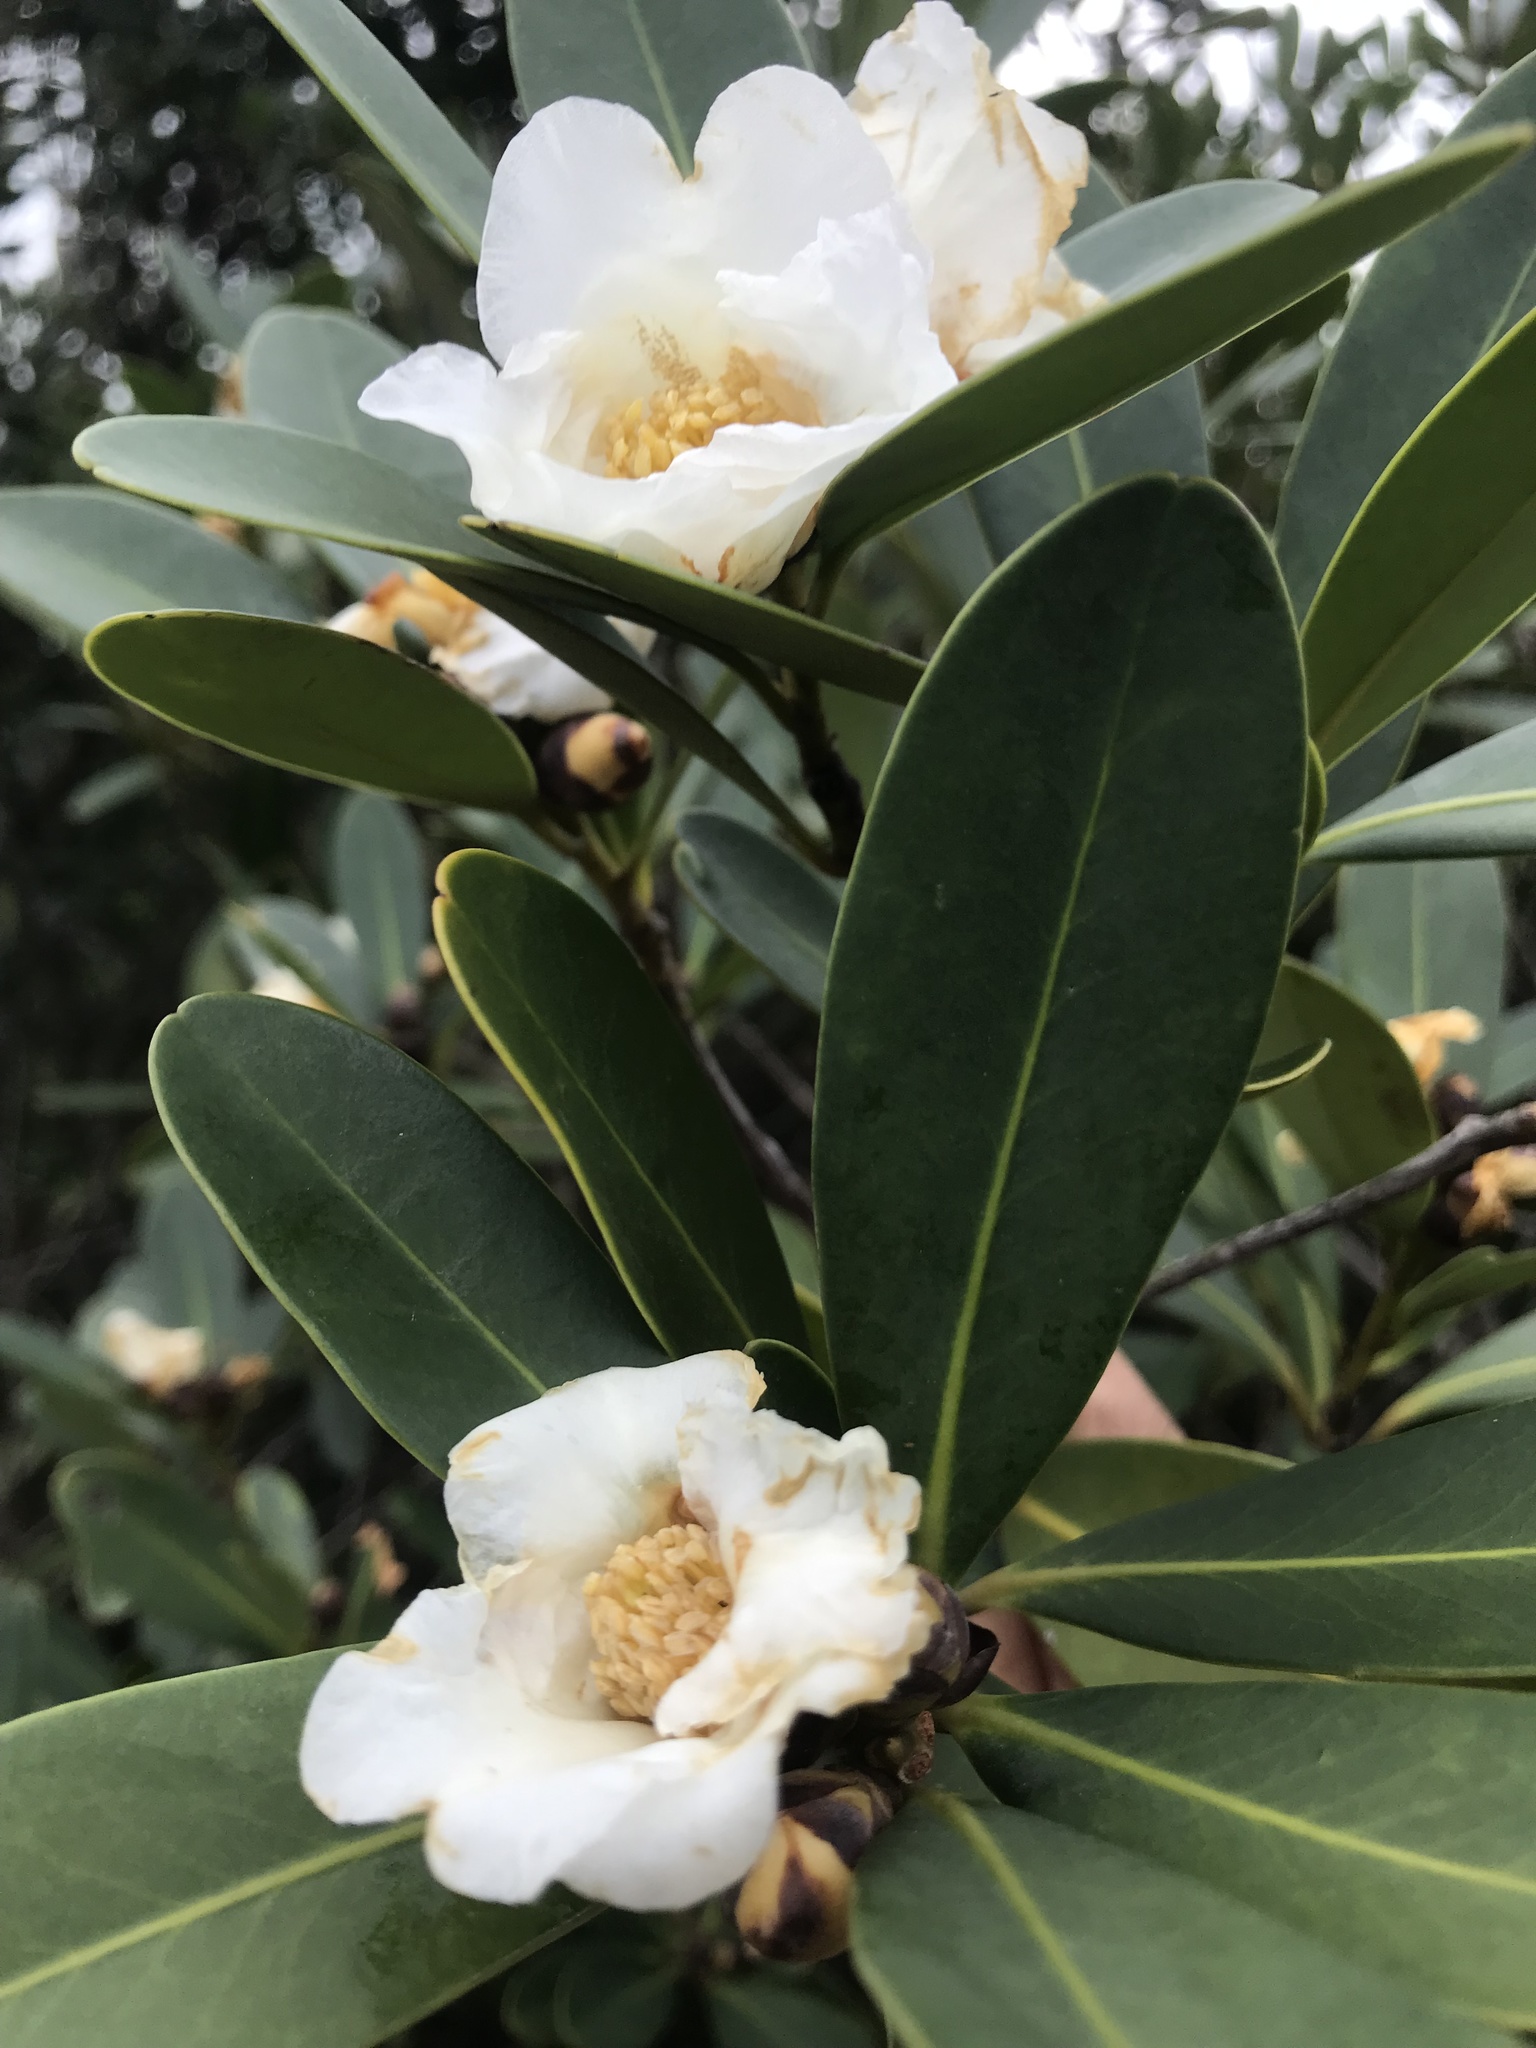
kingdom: Plantae
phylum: Tracheophyta
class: Magnoliopsida
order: Ericales
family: Theaceae
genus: Polyspora
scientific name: Polyspora axillaris
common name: Fried egg tree
